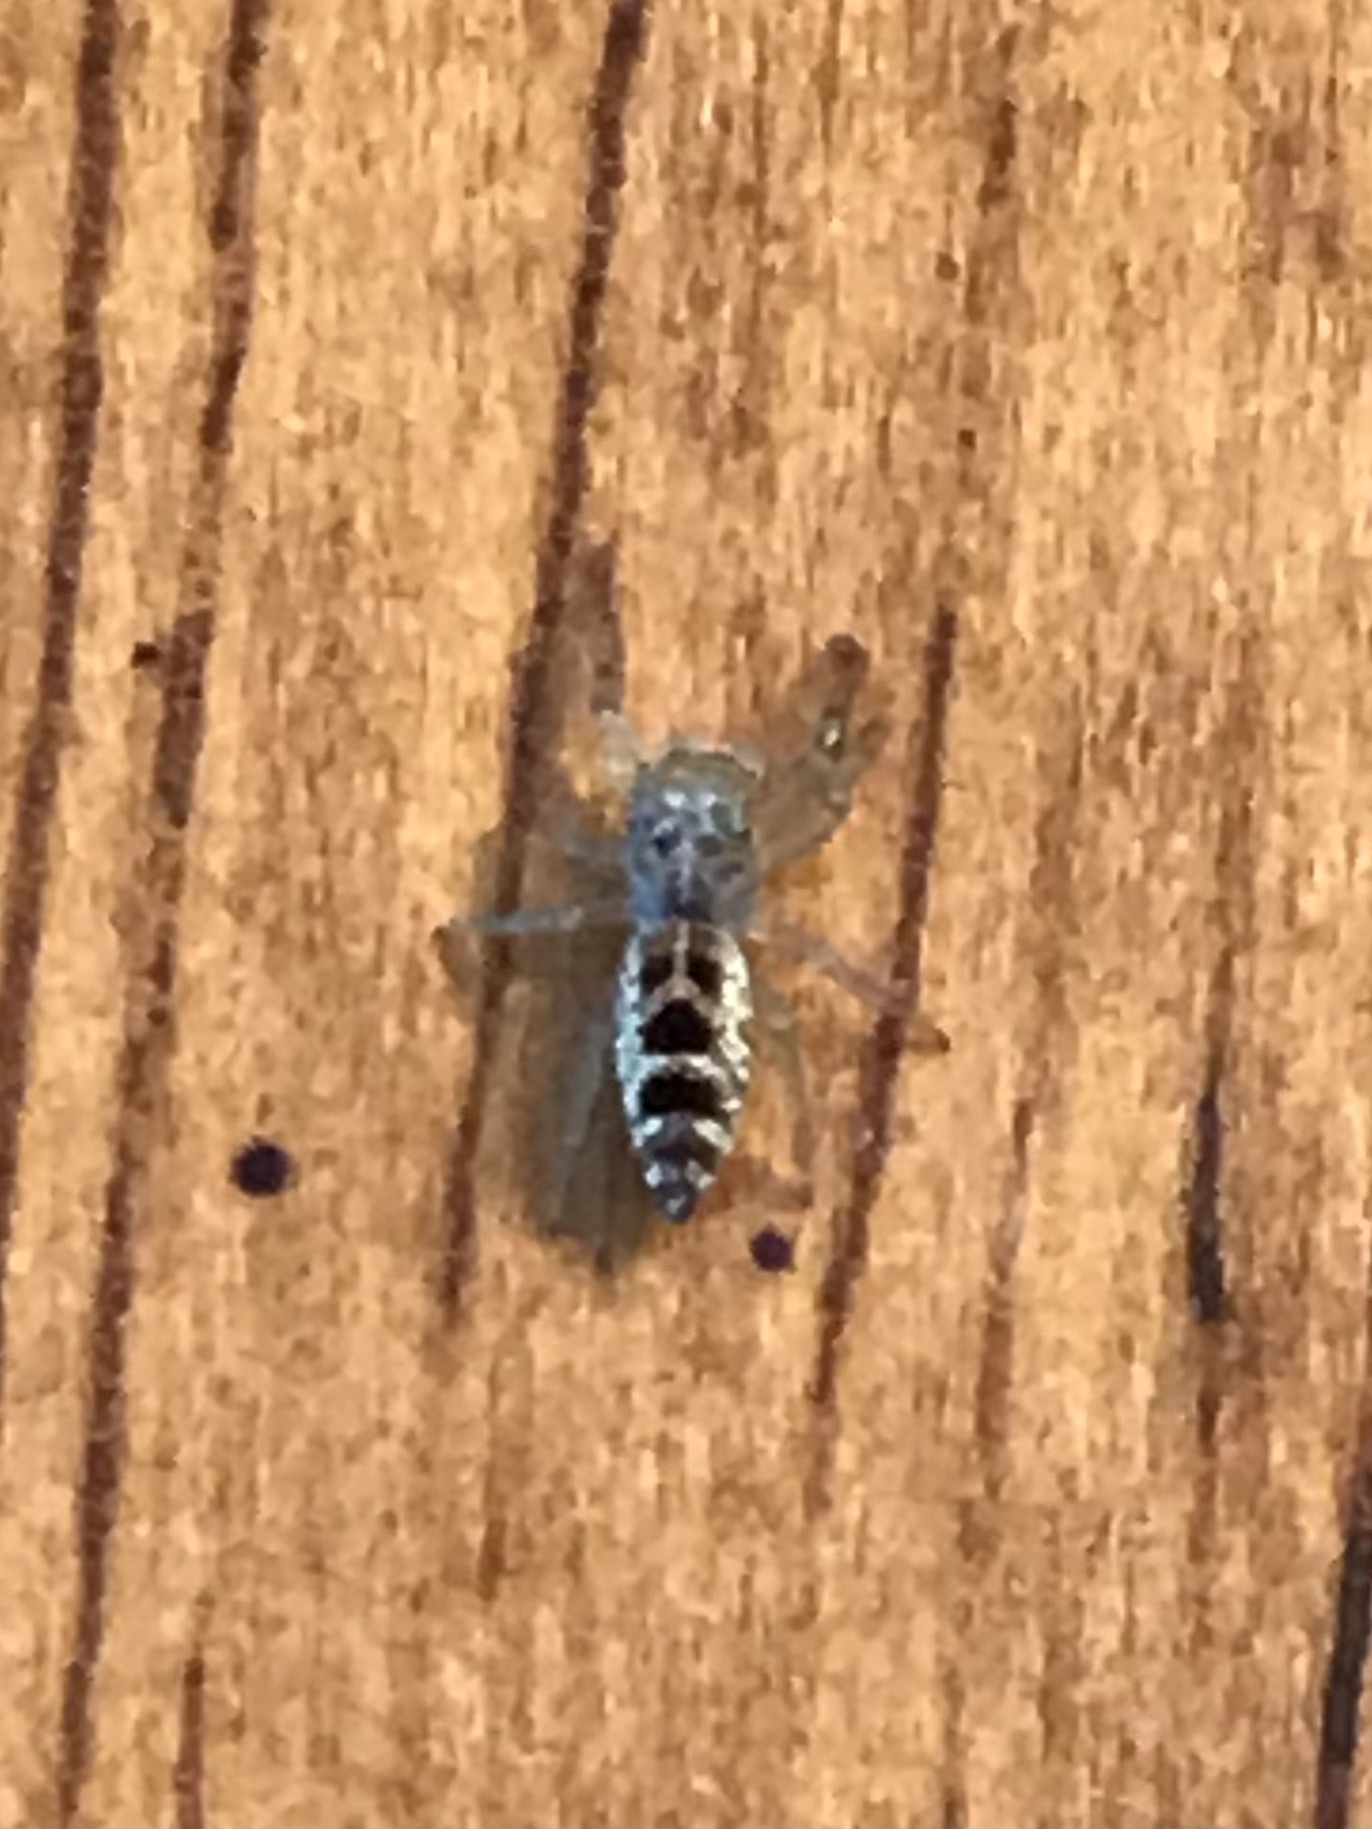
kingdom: Animalia
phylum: Arthropoda
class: Arachnida
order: Araneae
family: Salticidae
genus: Hentzia
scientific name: Hentzia mitrata
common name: White-jawed jumping spider
